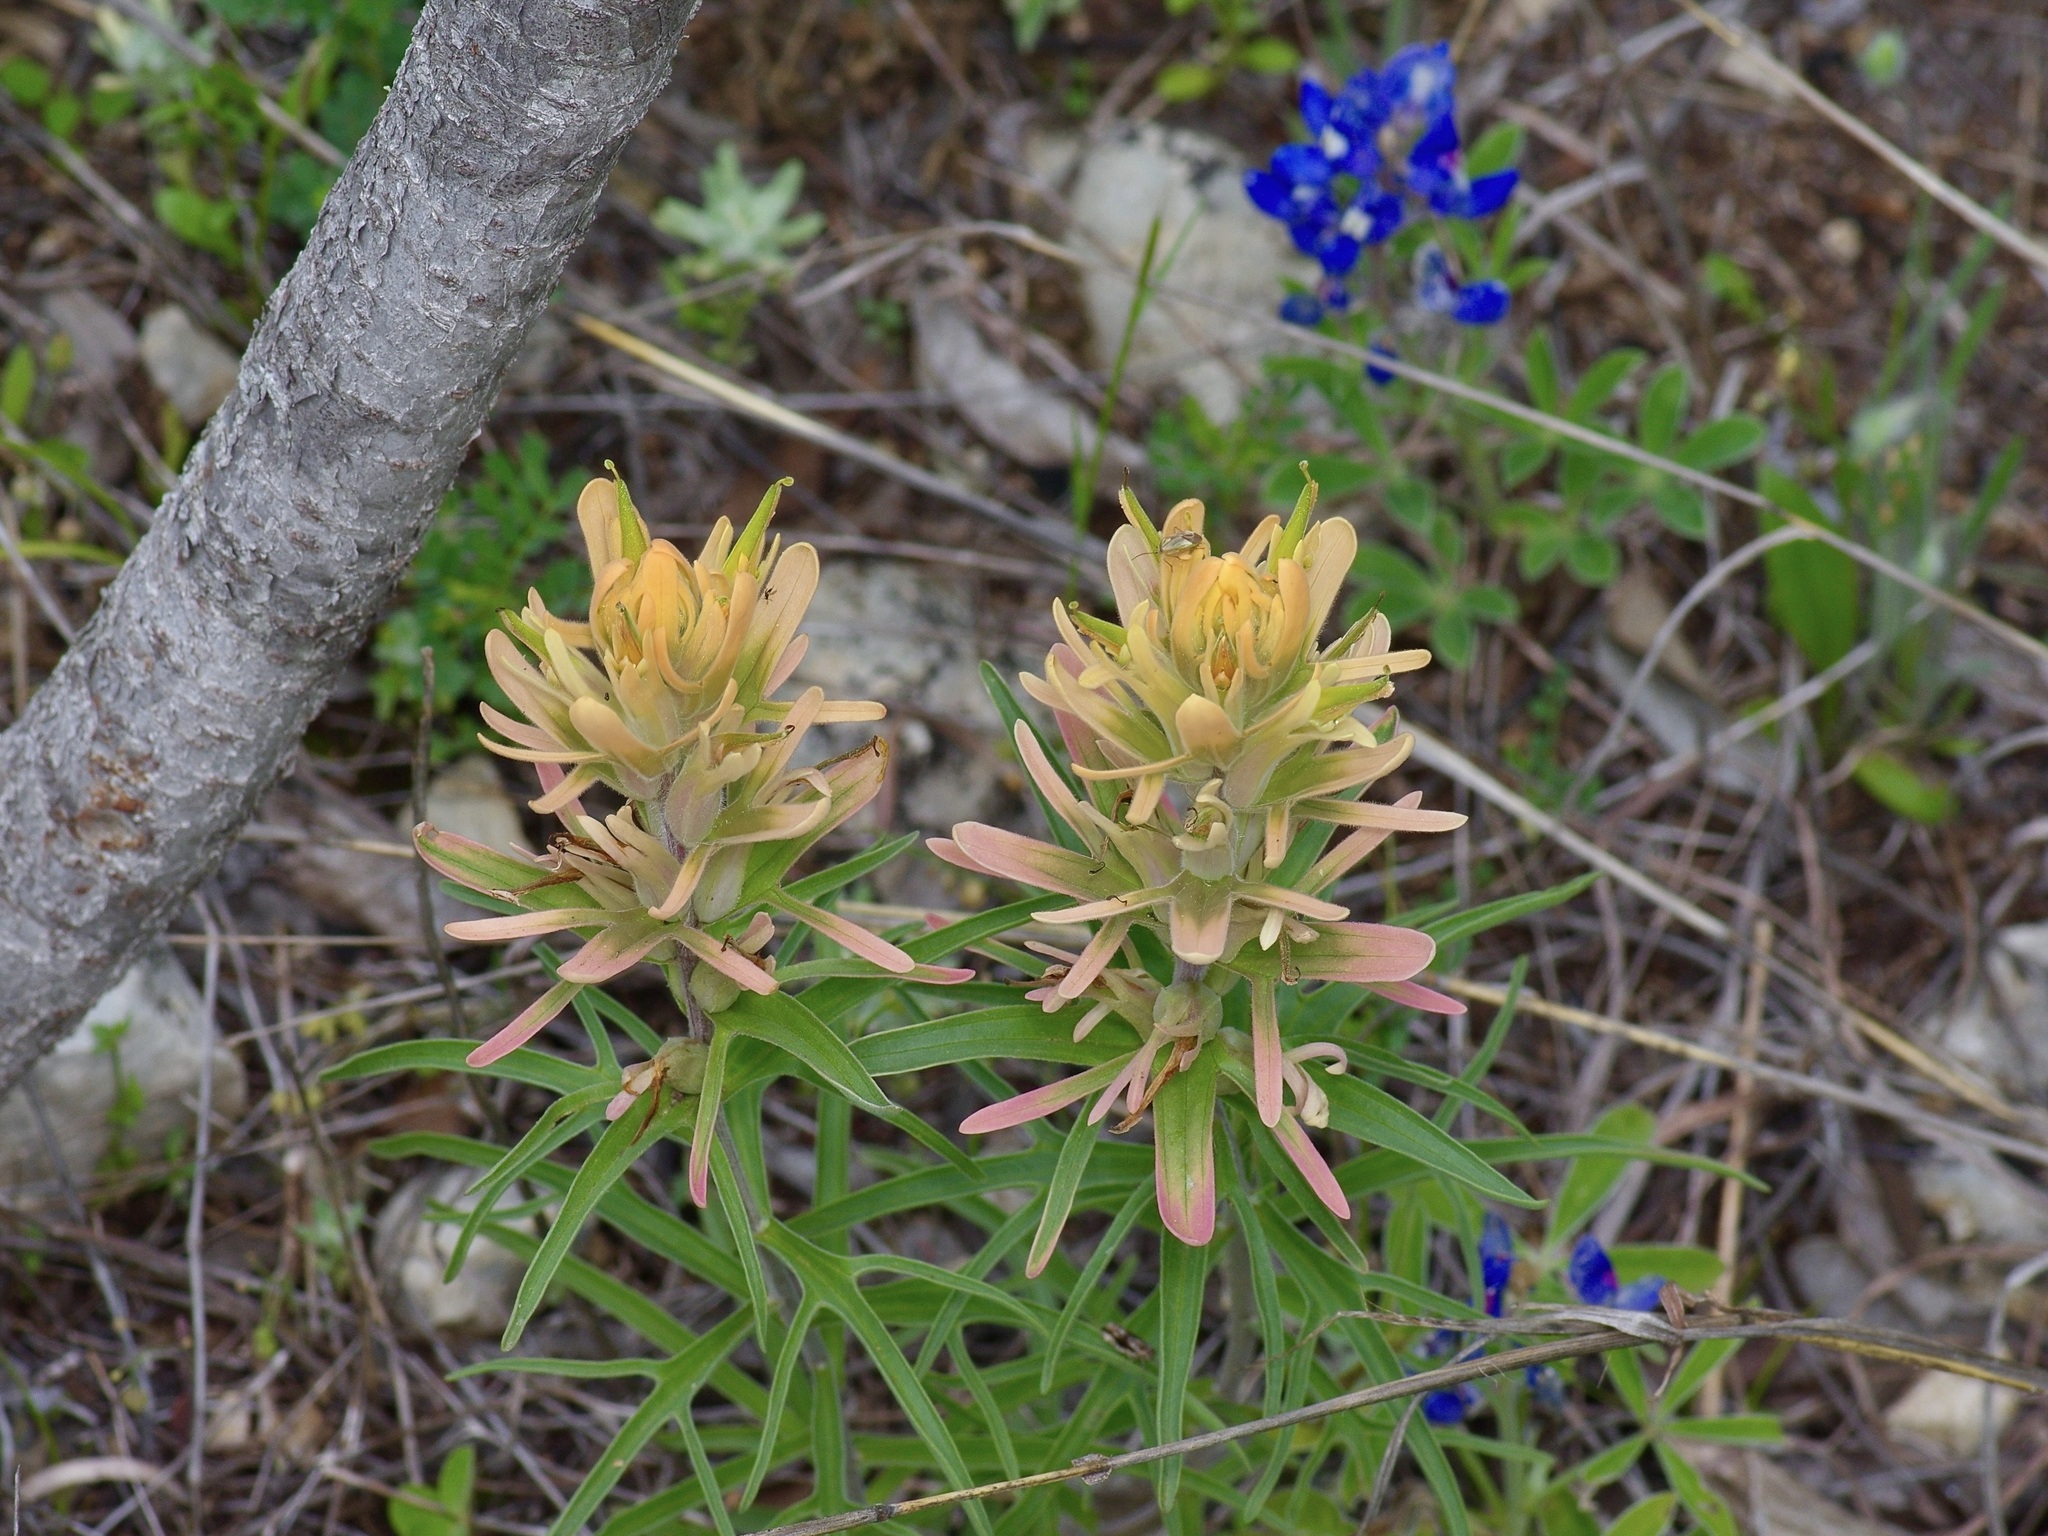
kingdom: Plantae
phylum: Tracheophyta
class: Magnoliopsida
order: Lamiales
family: Orobanchaceae
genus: Castilleja
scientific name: Castilleja lindheimeri
